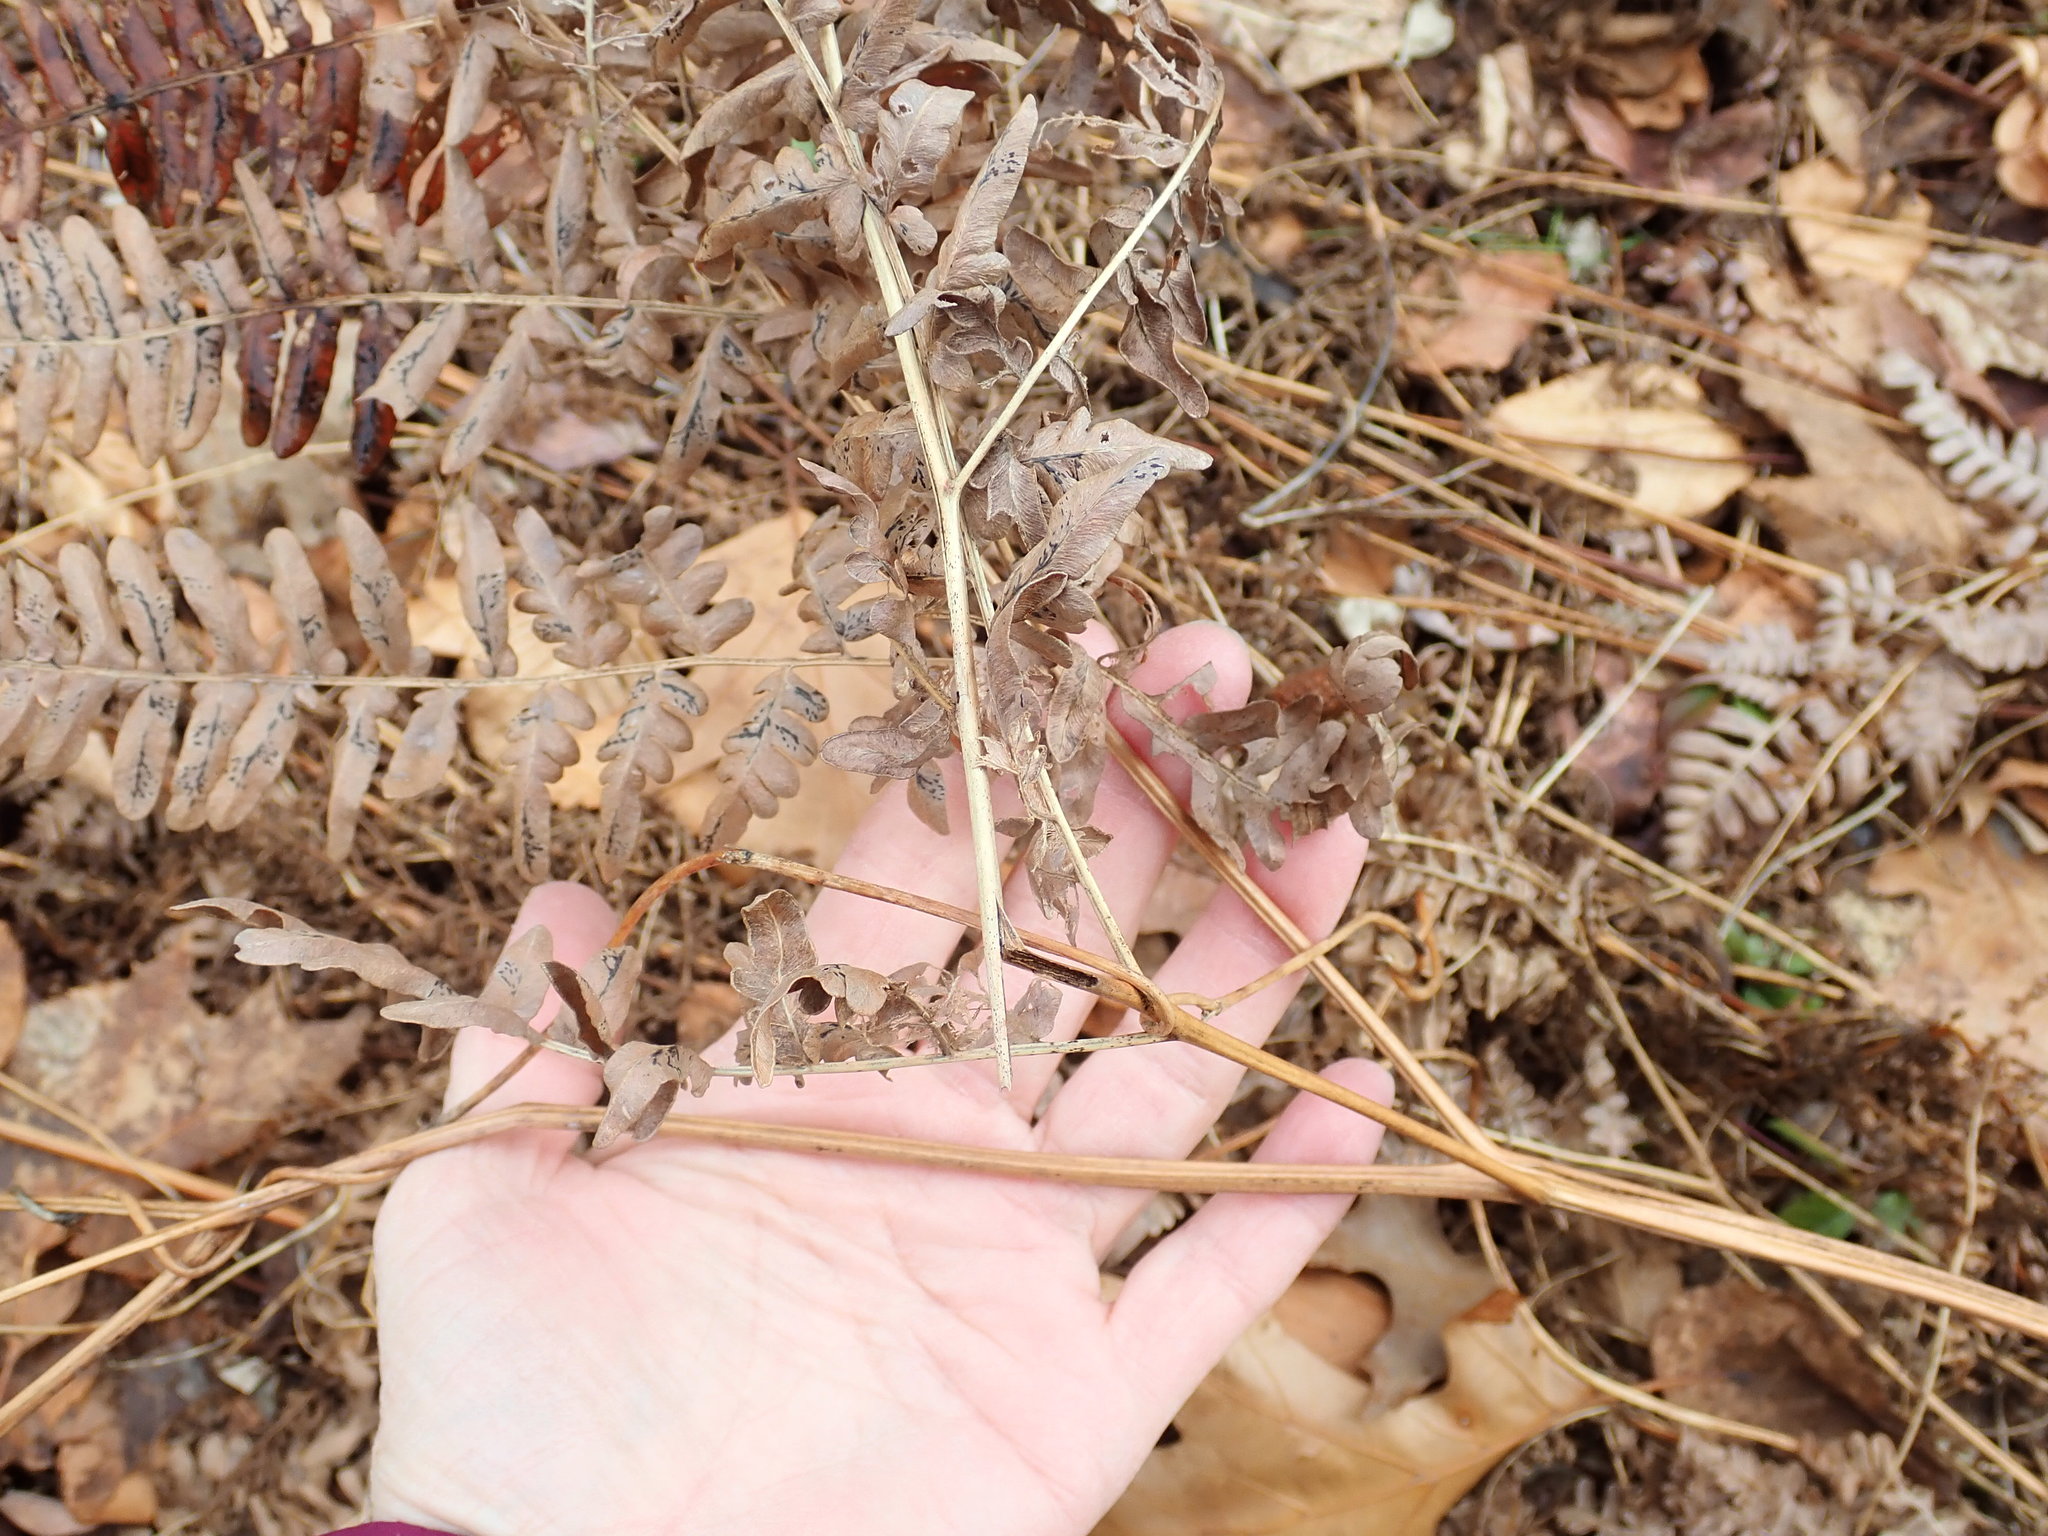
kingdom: Plantae
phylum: Tracheophyta
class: Polypodiopsida
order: Polypodiales
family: Dennstaedtiaceae
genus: Pteridium
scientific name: Pteridium aquilinum
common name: Bracken
